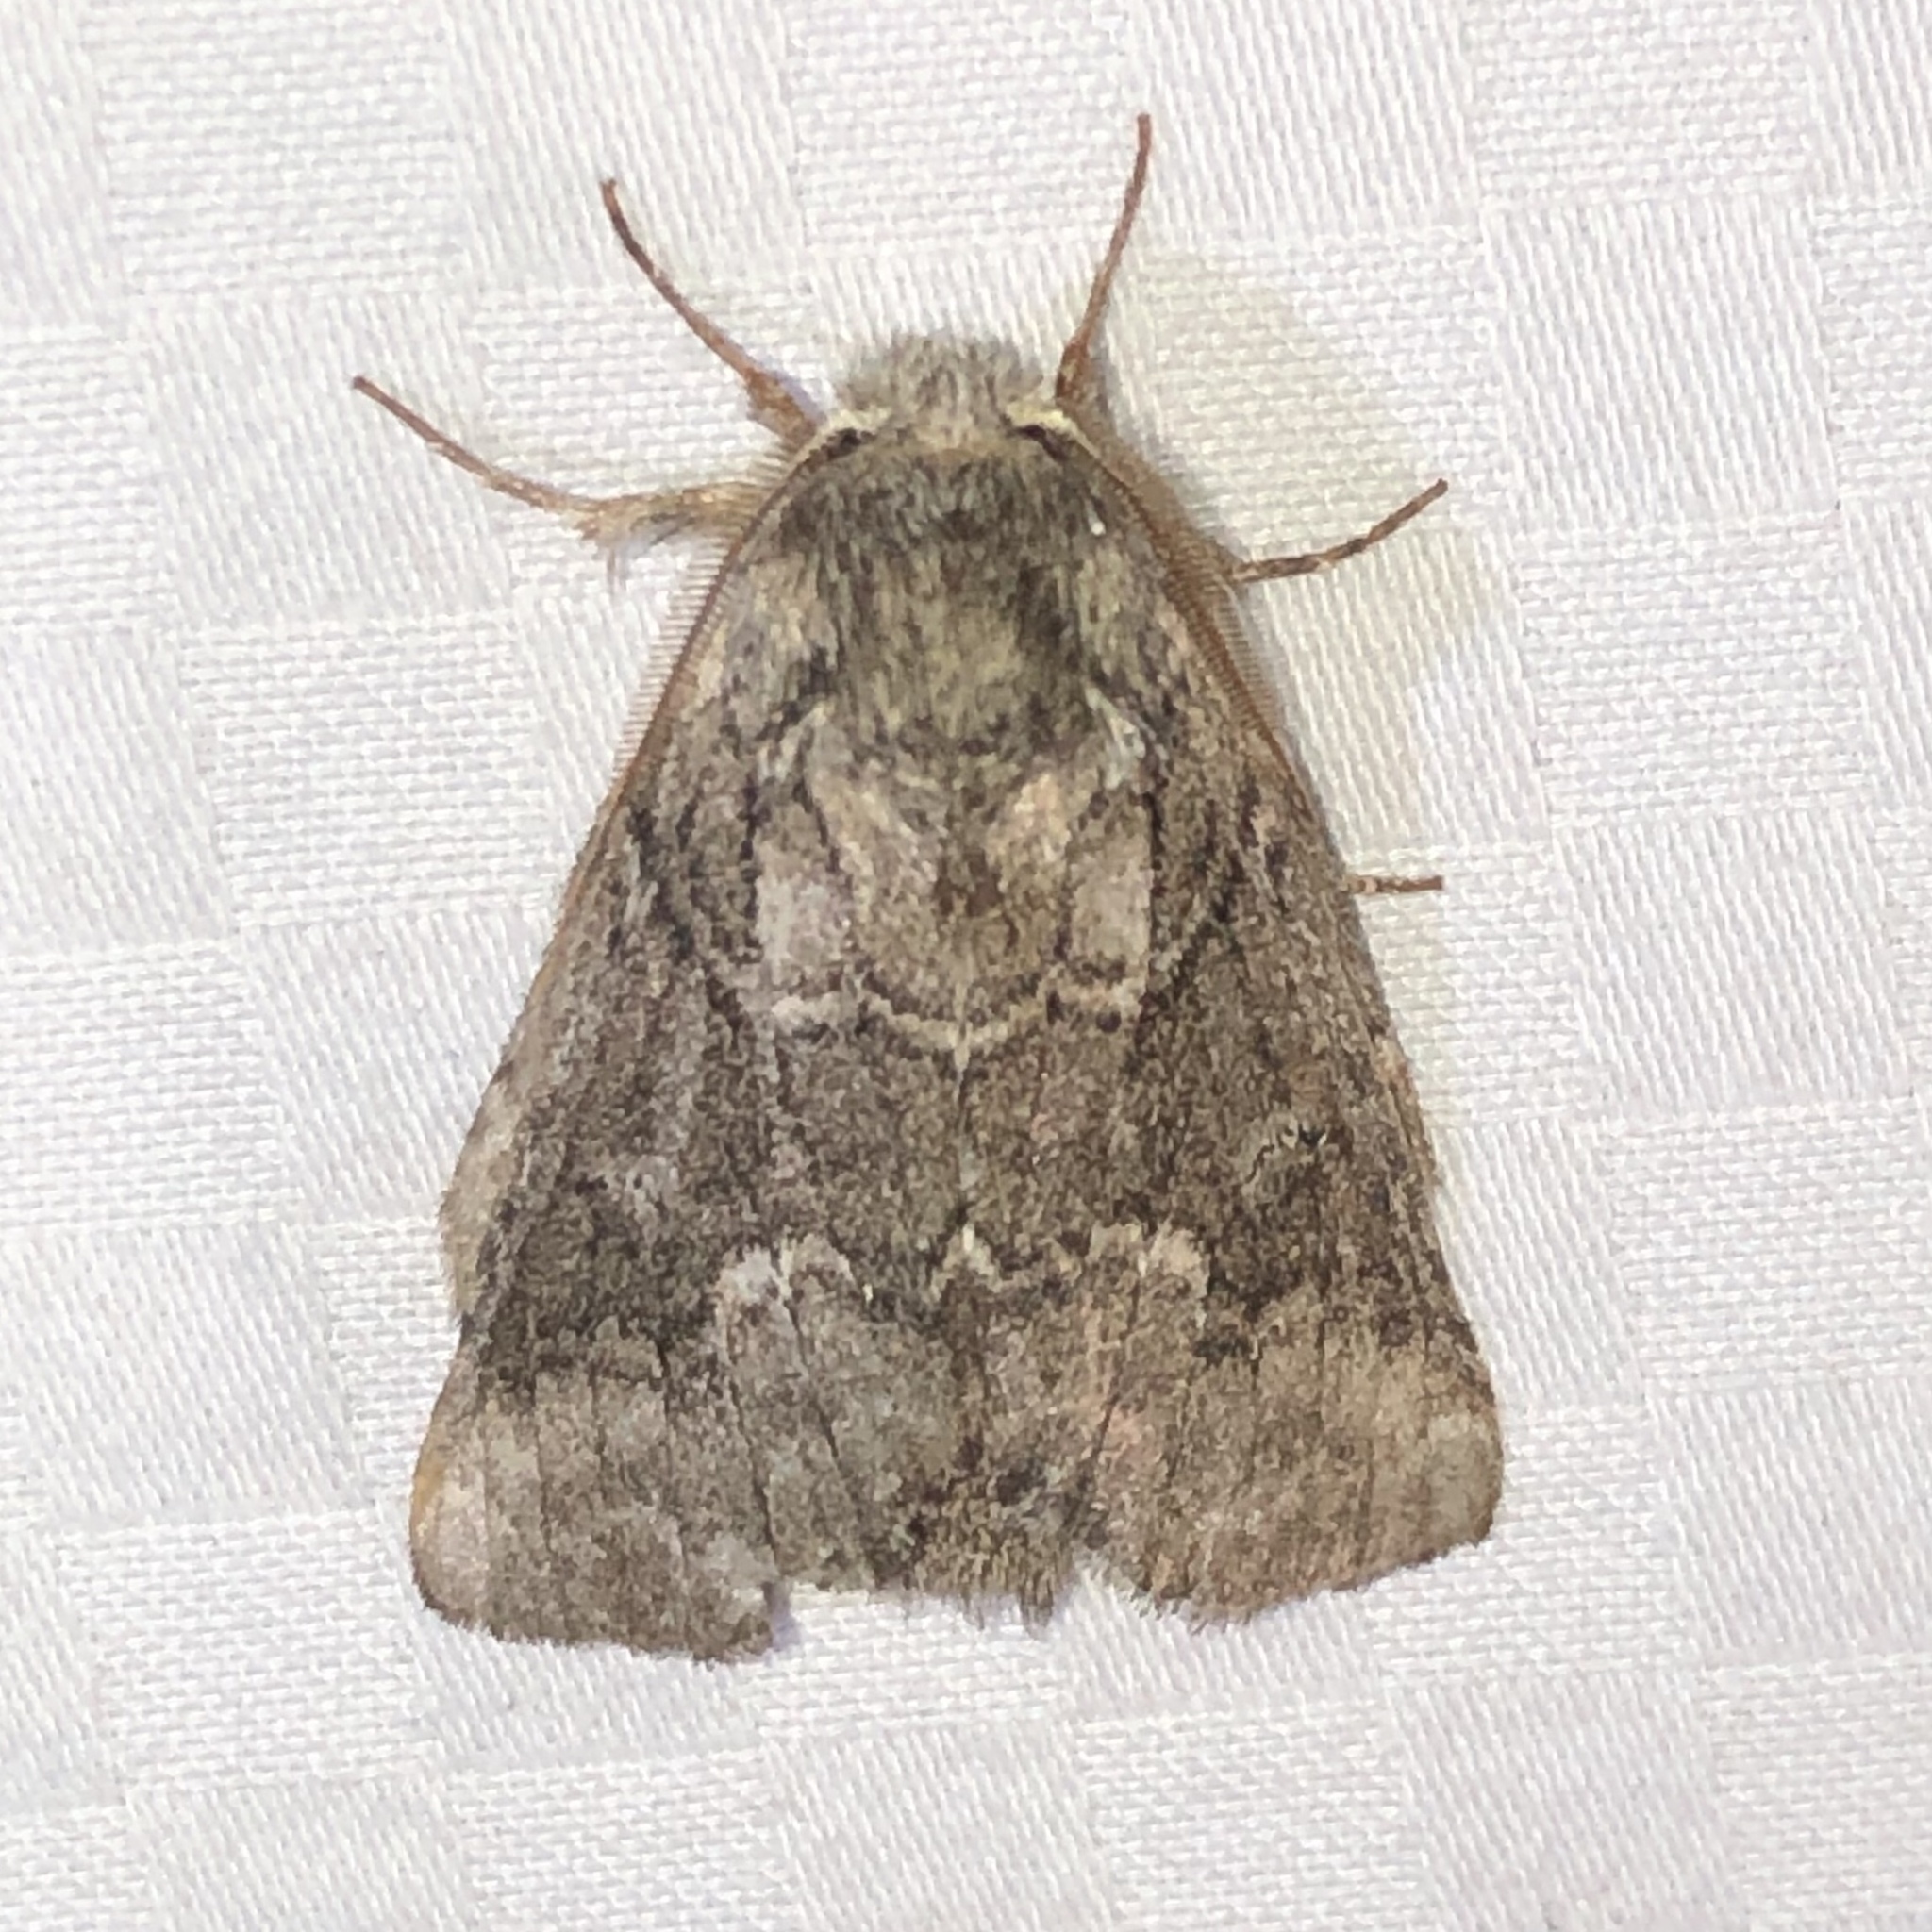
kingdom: Animalia
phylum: Arthropoda
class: Insecta
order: Lepidoptera
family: Notodontidae
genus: Lochmaeus
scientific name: Lochmaeus bilineata
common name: Double-lined prominent
